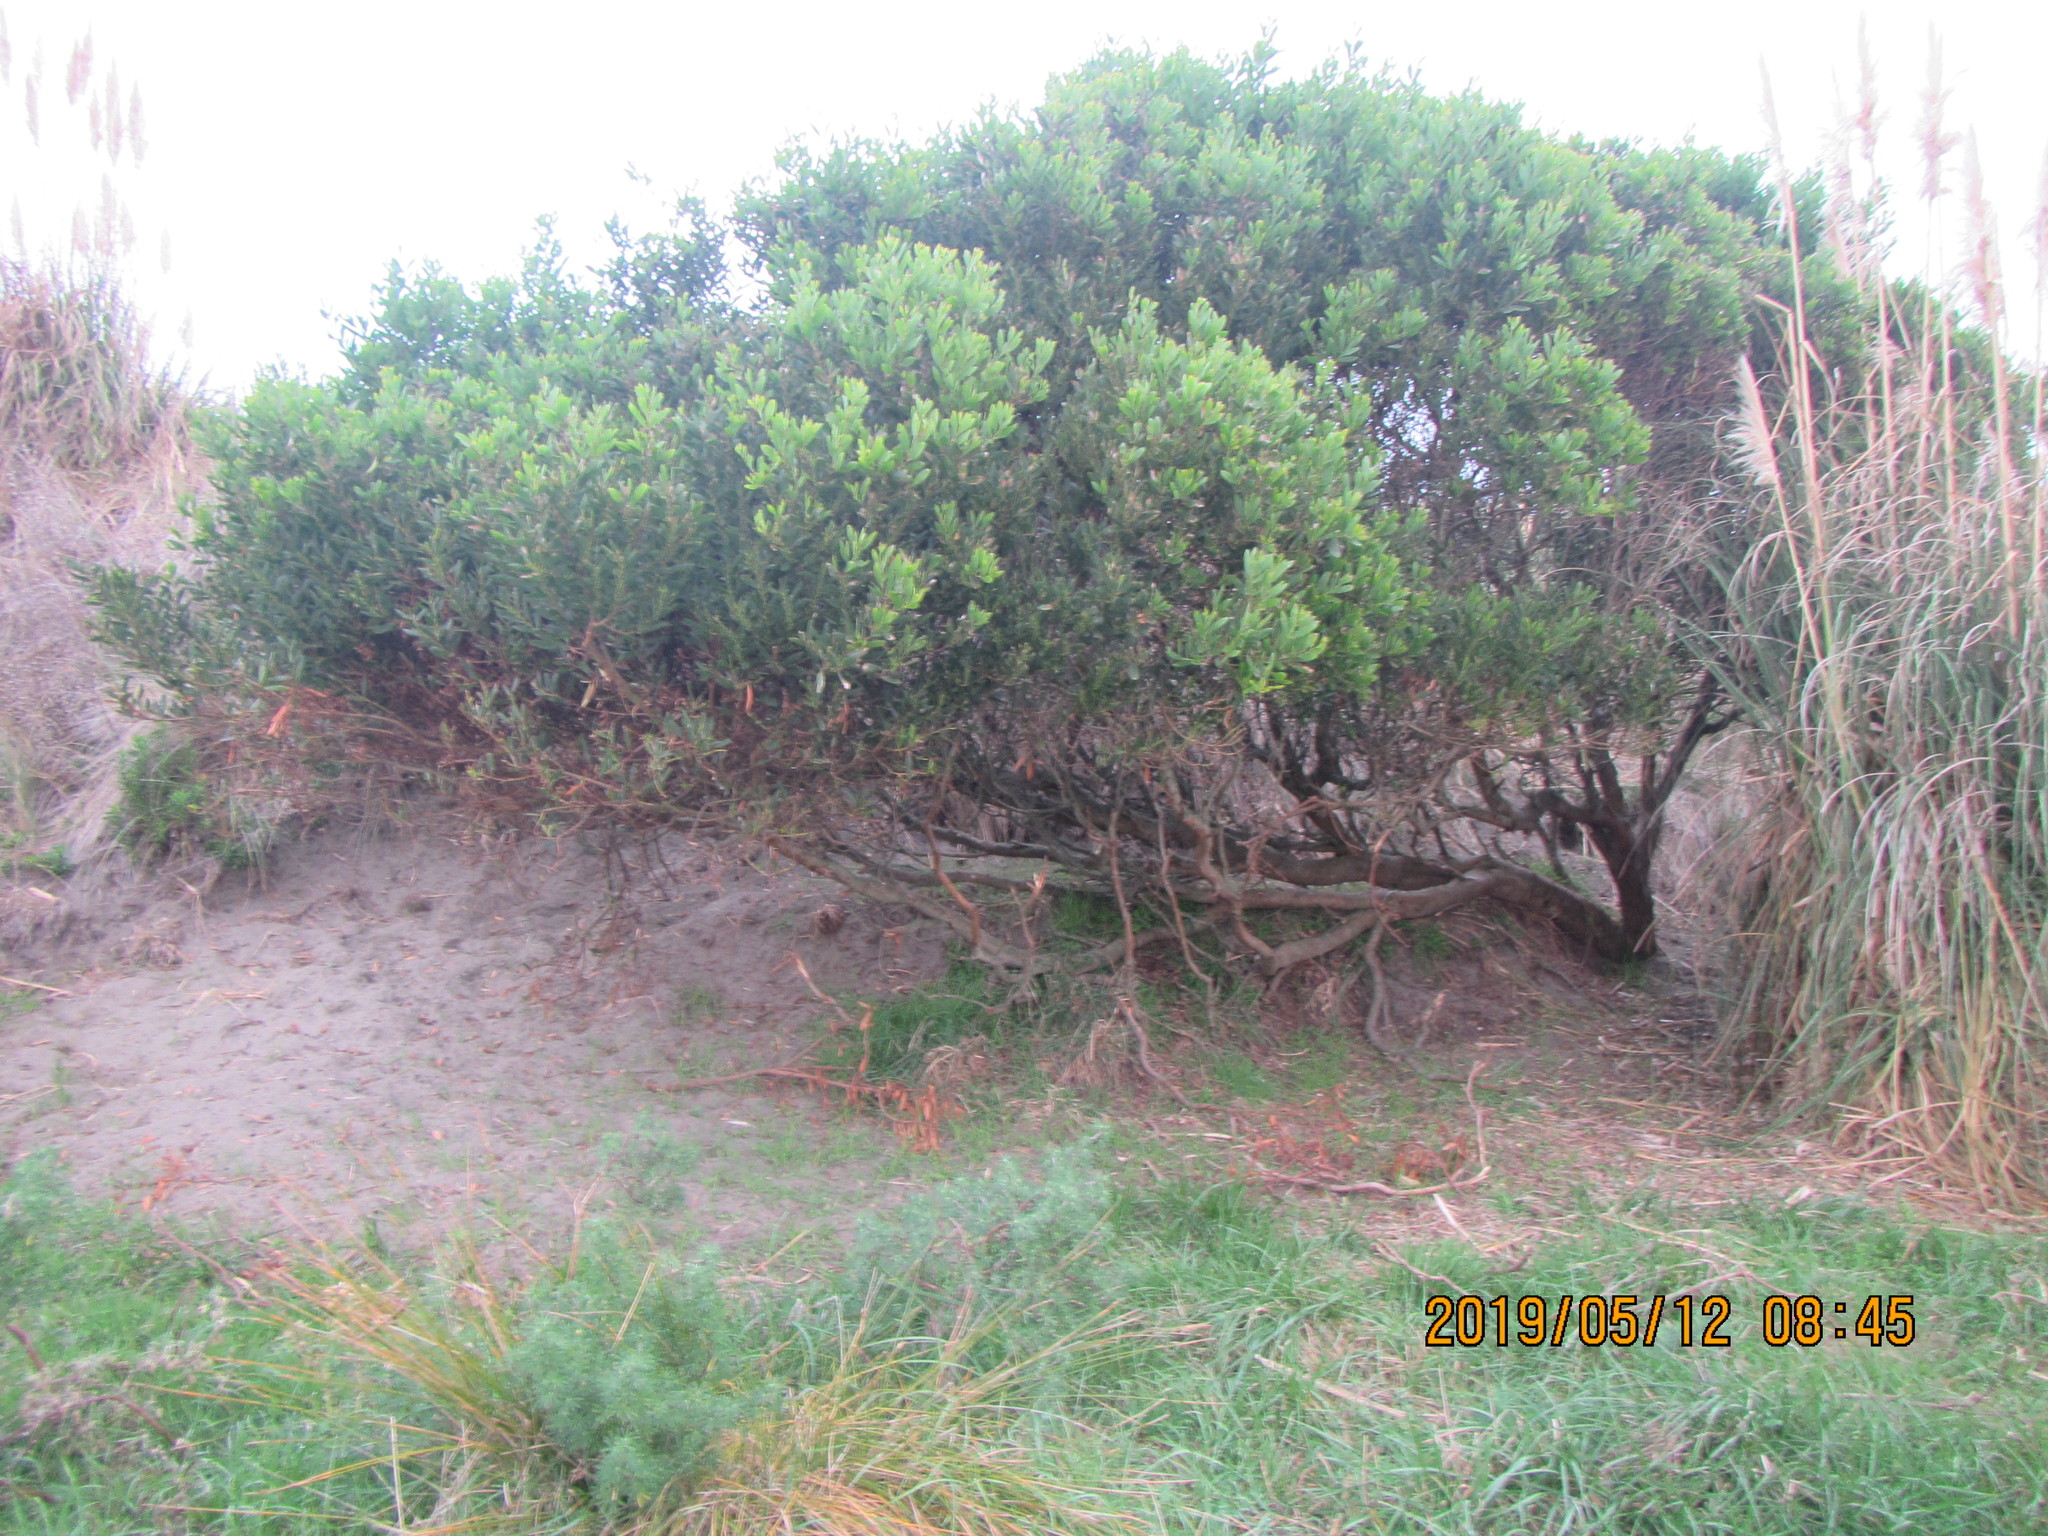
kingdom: Plantae
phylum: Tracheophyta
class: Magnoliopsida
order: Fabales
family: Fabaceae
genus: Acacia
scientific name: Acacia longifolia
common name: Sydney golden wattle
